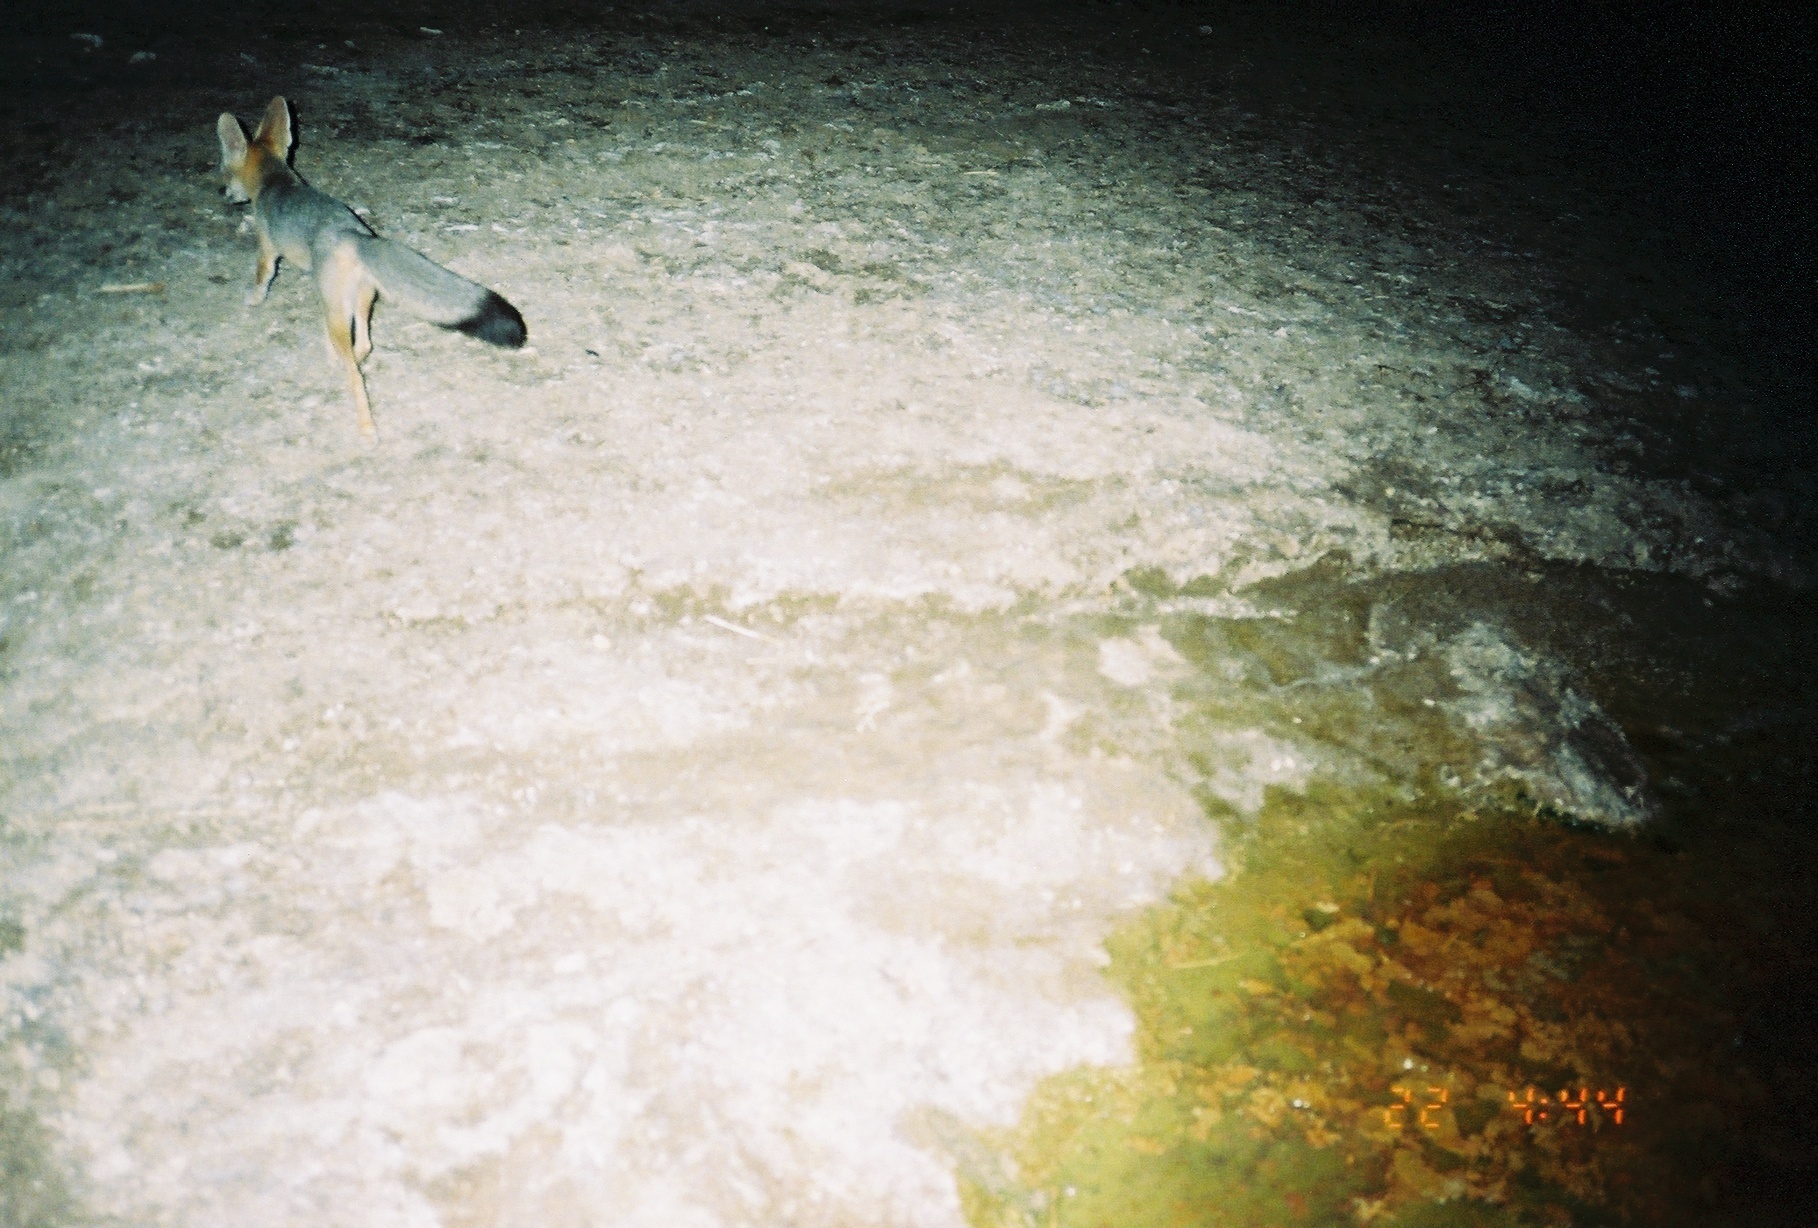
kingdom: Animalia
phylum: Chordata
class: Mammalia
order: Carnivora
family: Canidae
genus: Vulpes
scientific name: Vulpes macrotis
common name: Kit fox
